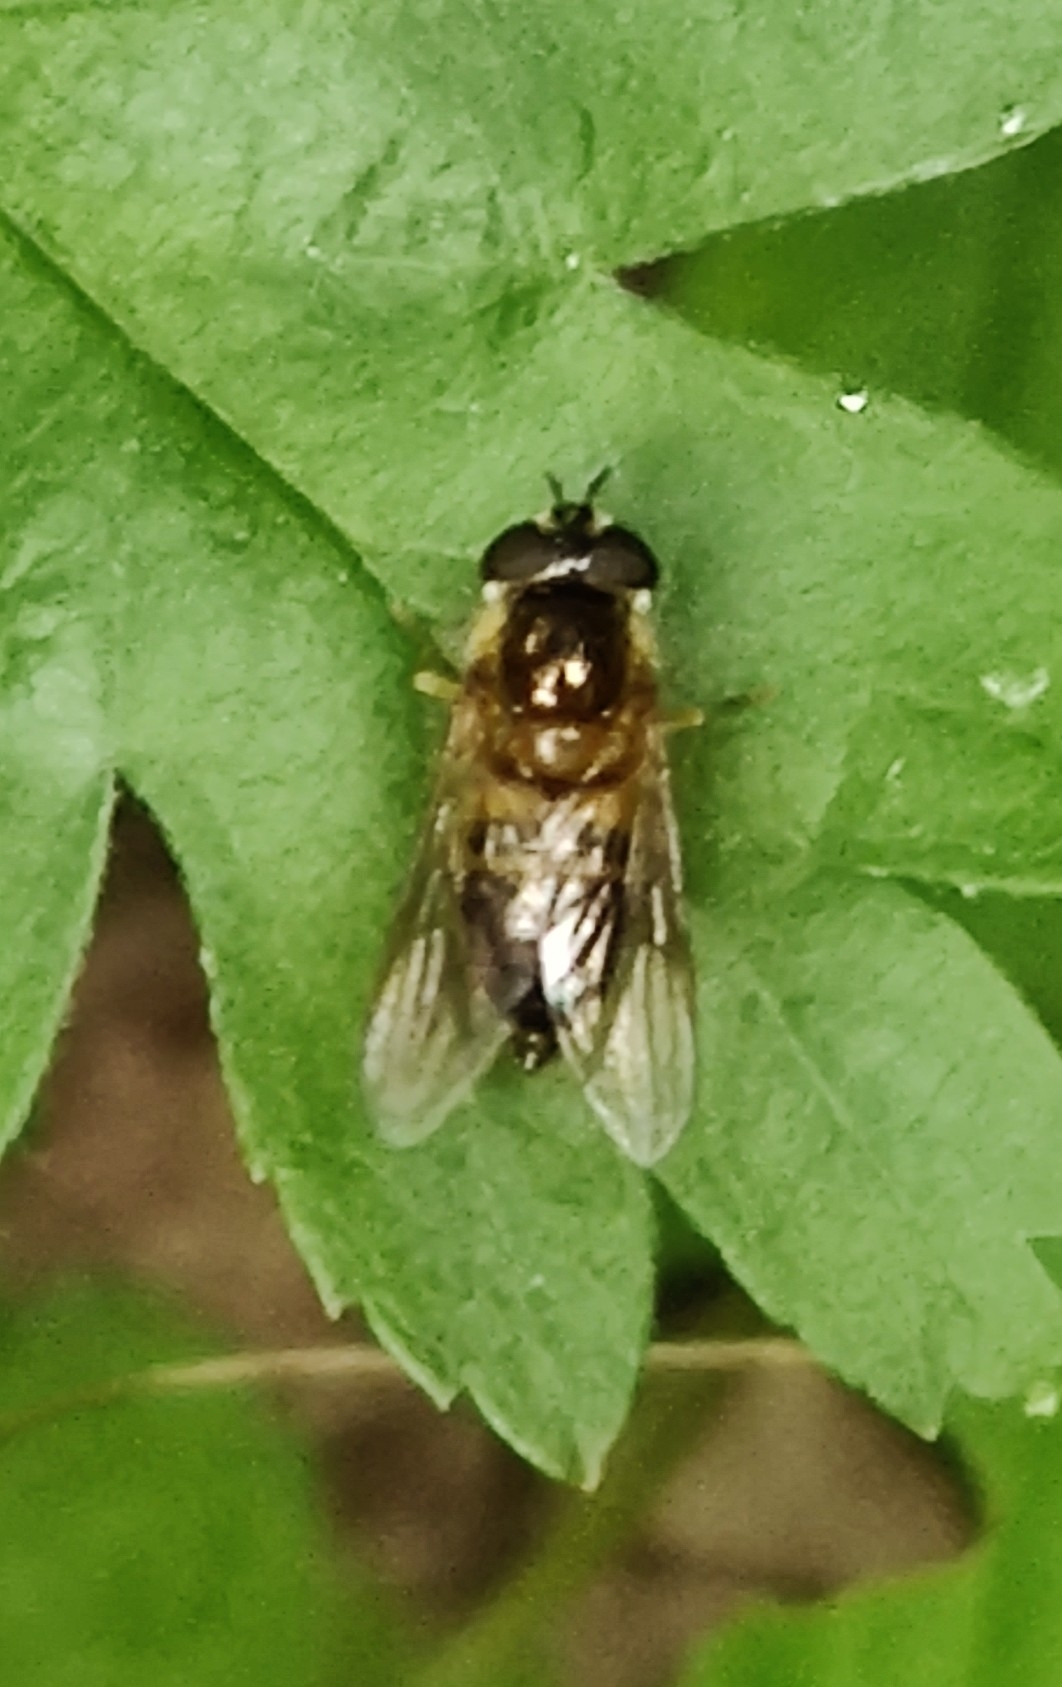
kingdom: Animalia
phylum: Arthropoda
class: Insecta
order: Diptera
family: Syrphidae
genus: Epistrophe
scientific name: Epistrophe eligans
